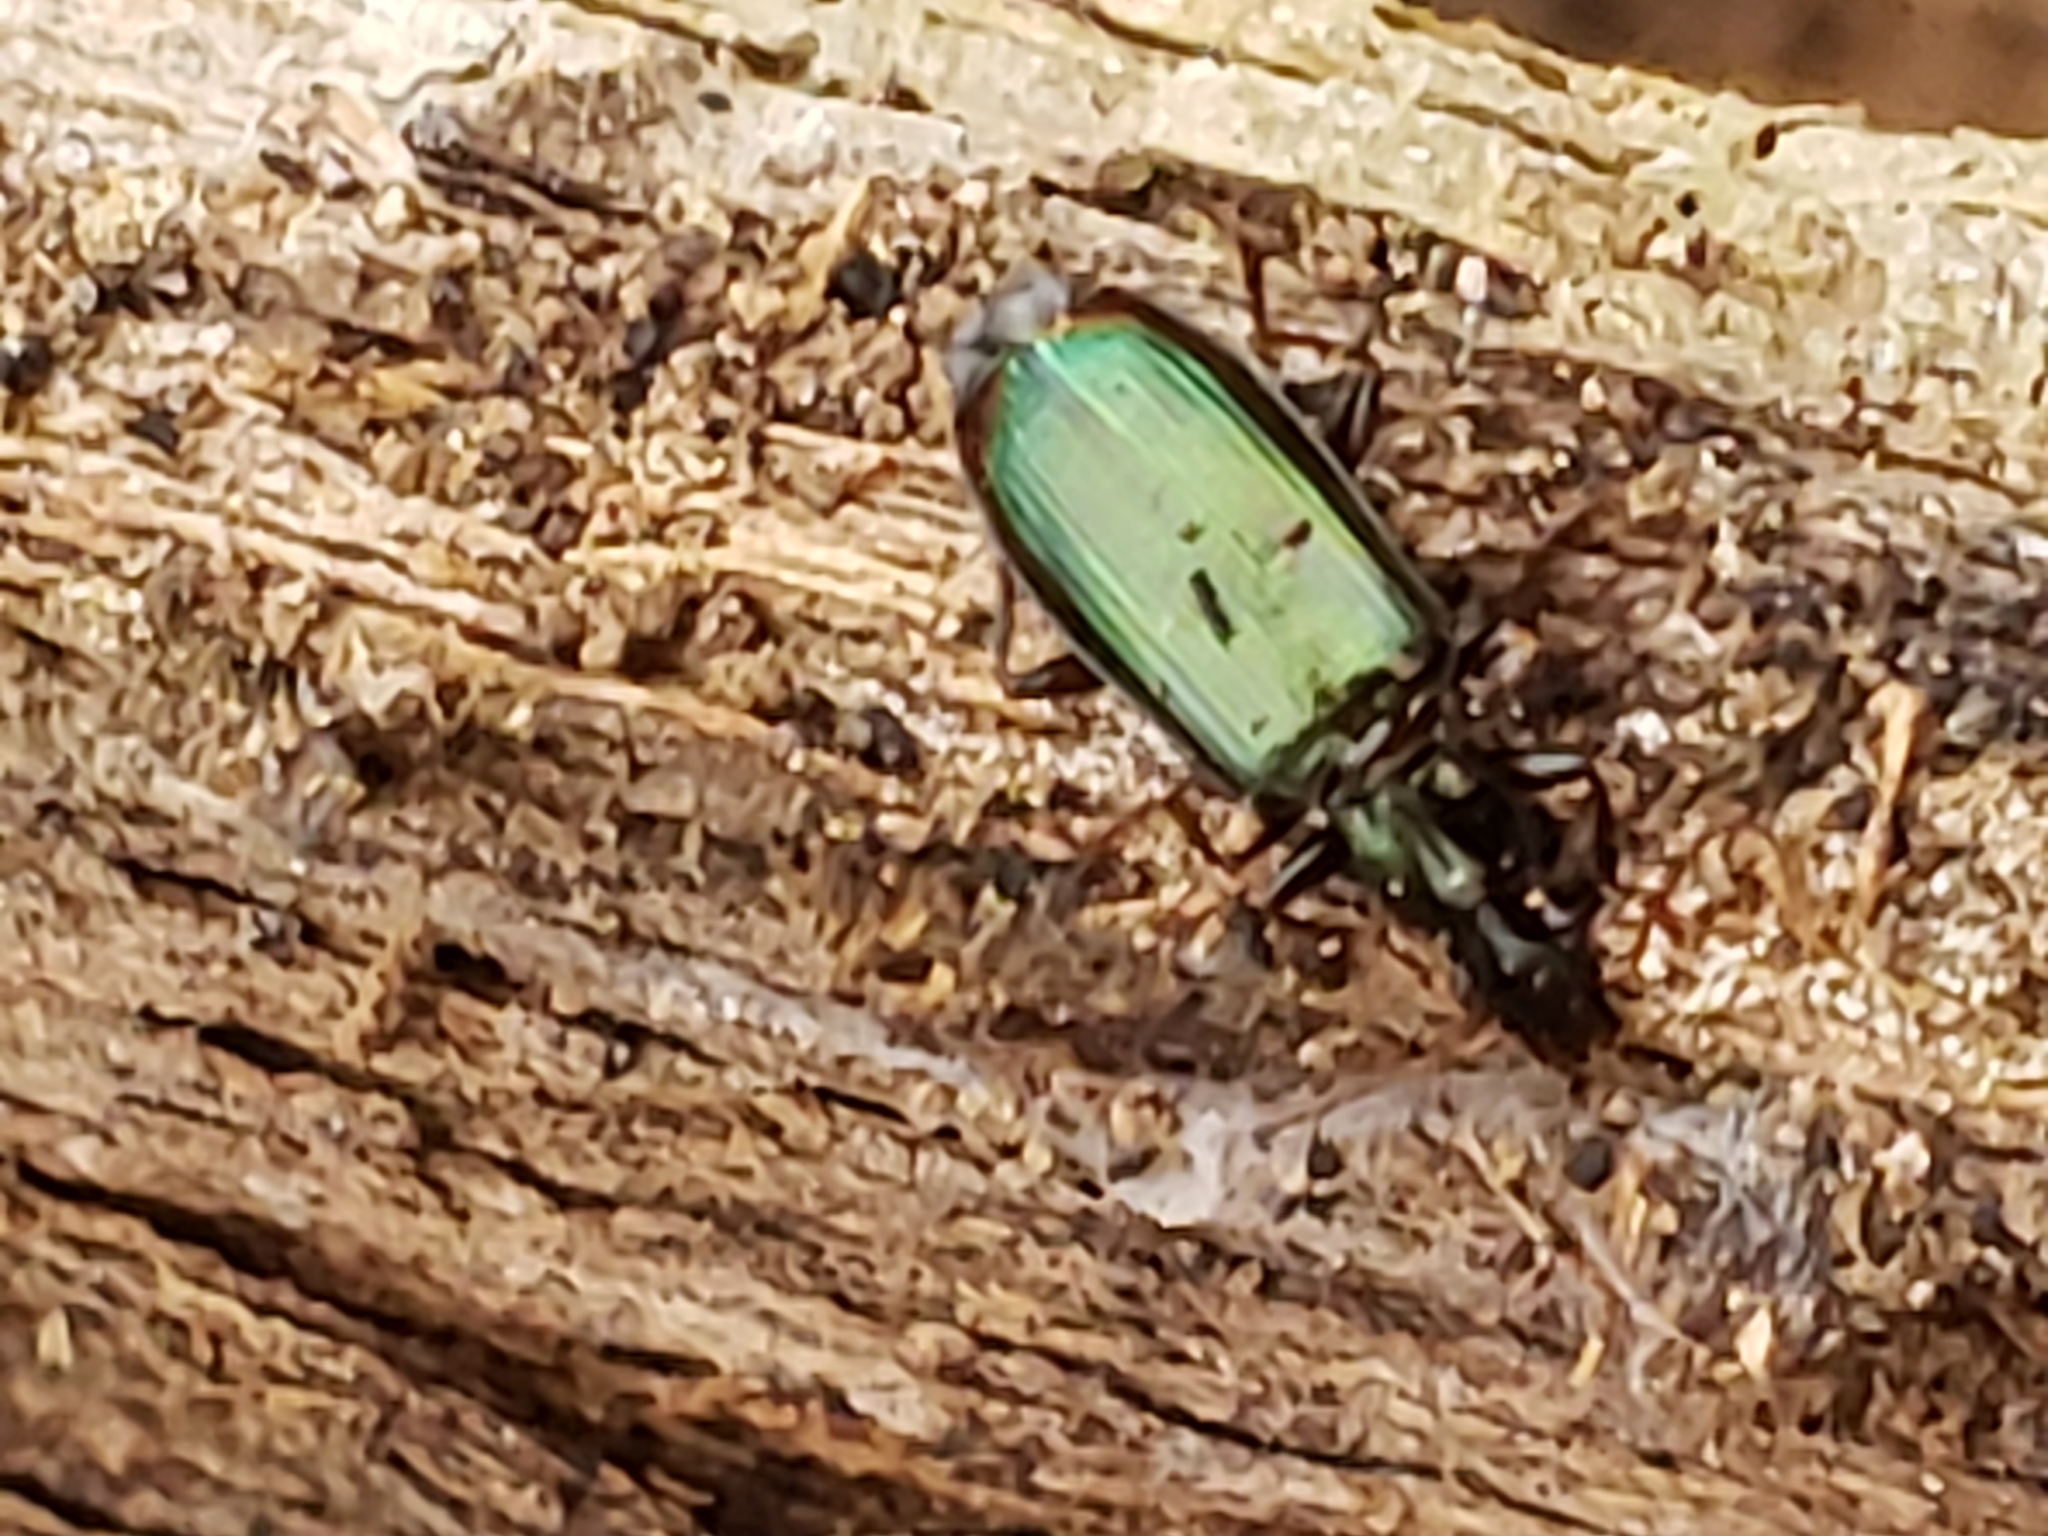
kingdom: Animalia
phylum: Arthropoda
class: Insecta
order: Coleoptera
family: Carabidae
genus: Calleida
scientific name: Calleida viridipennis
